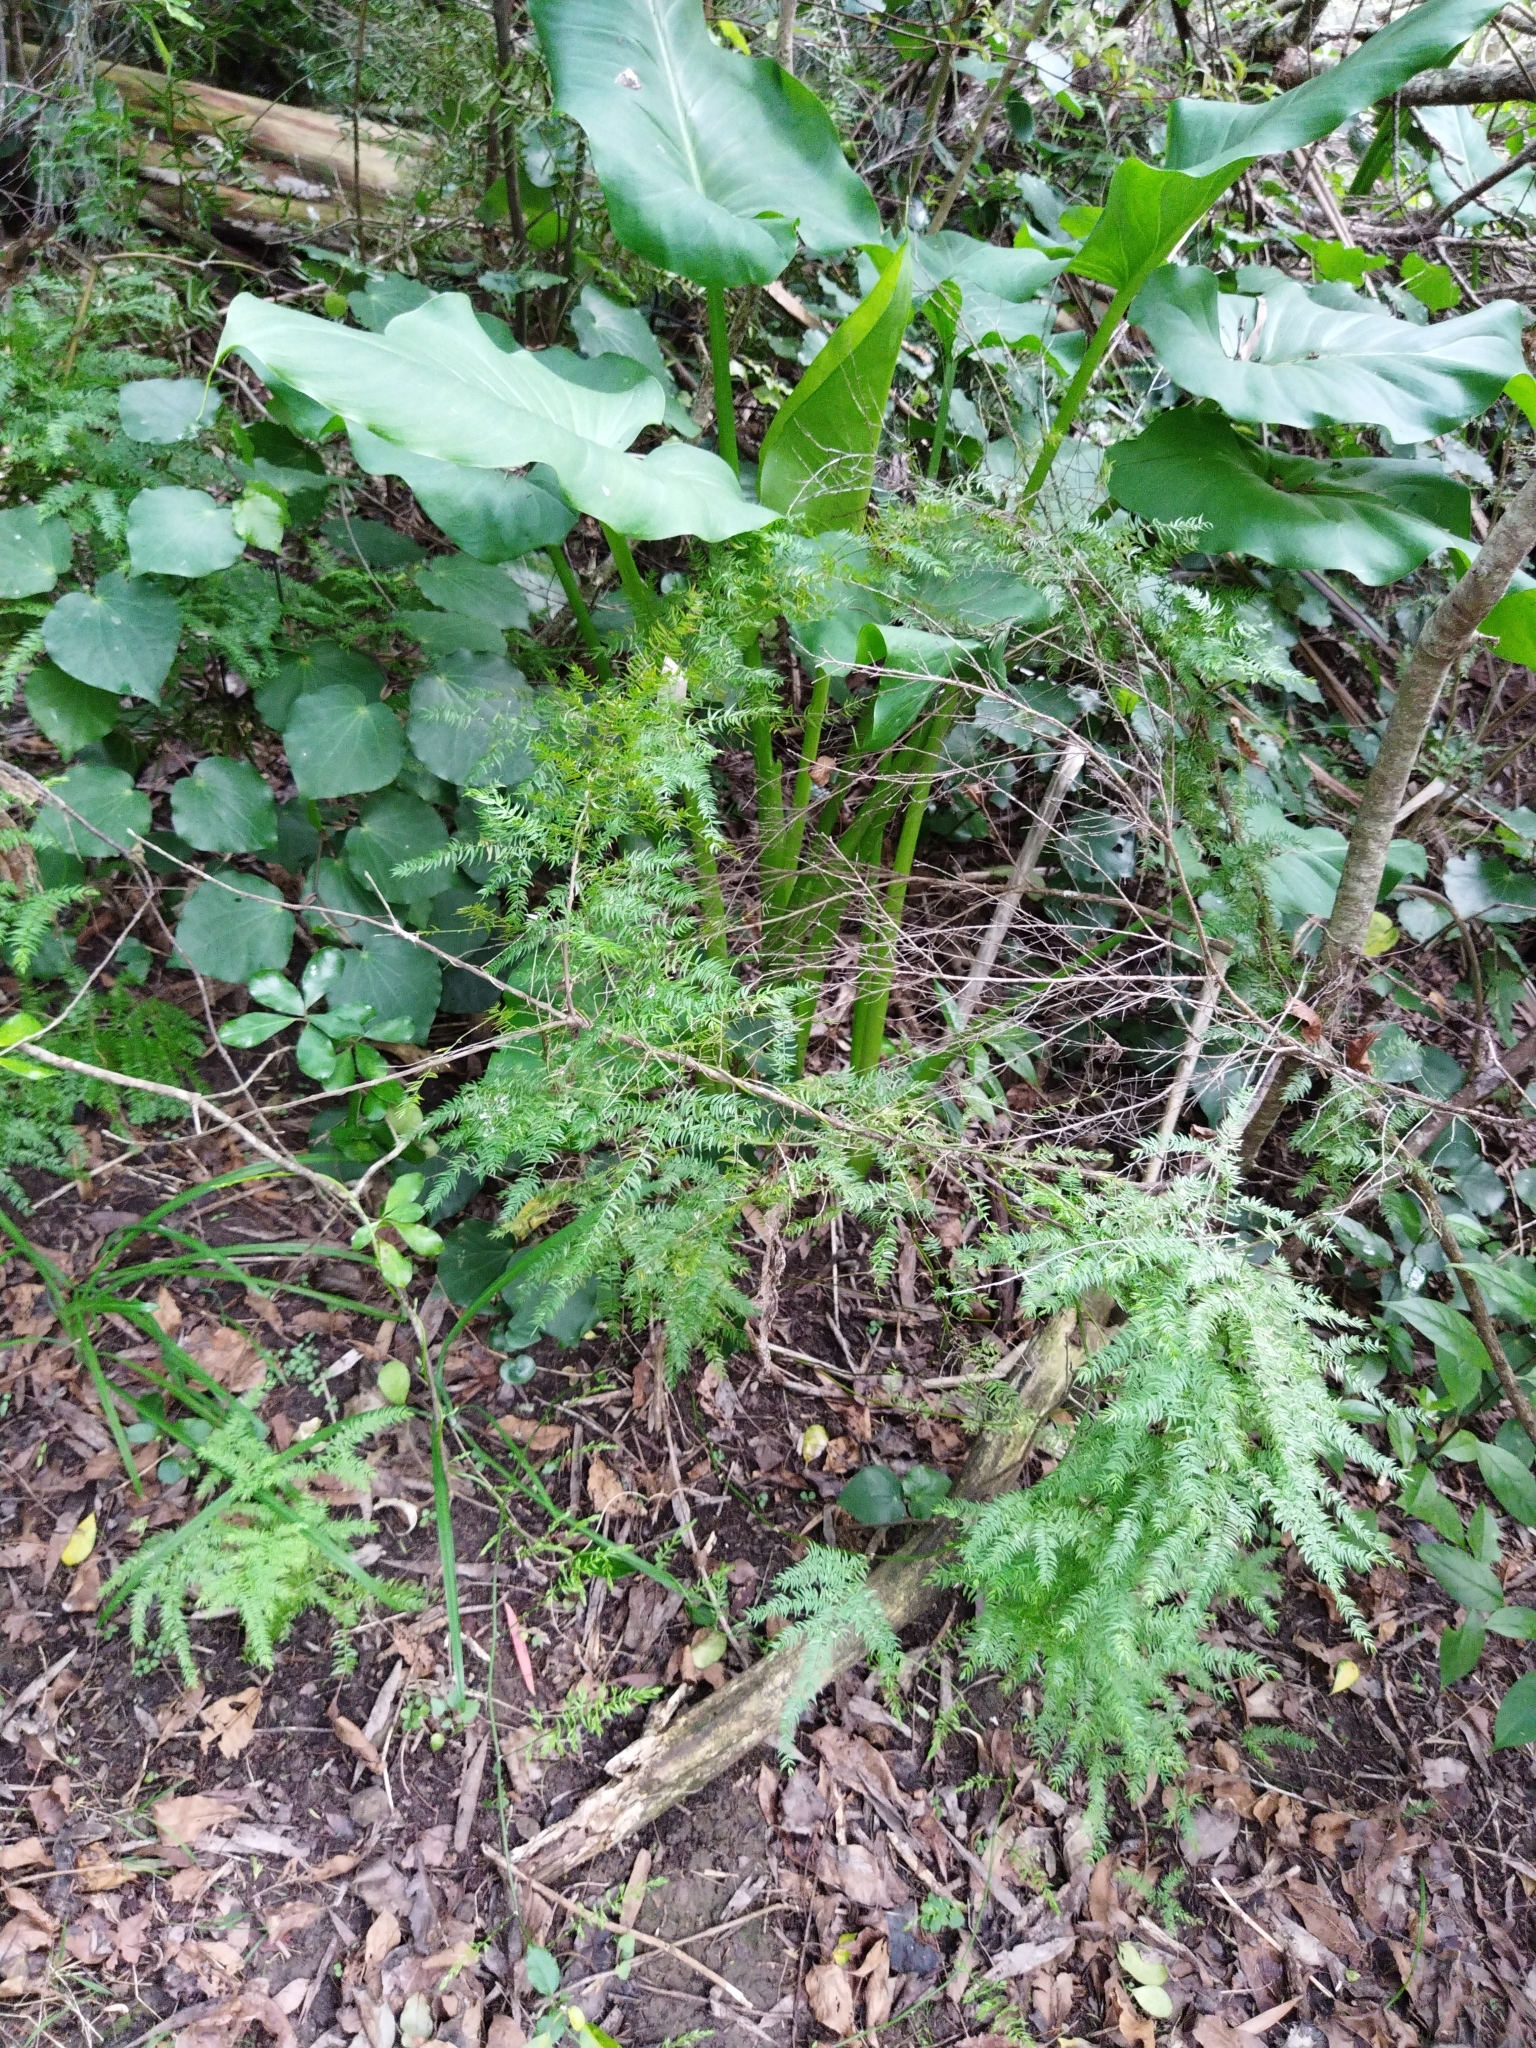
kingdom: Plantae
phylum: Tracheophyta
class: Liliopsida
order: Asparagales
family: Asparagaceae
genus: Asparagus
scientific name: Asparagus scandens
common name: Asparagus-fern
